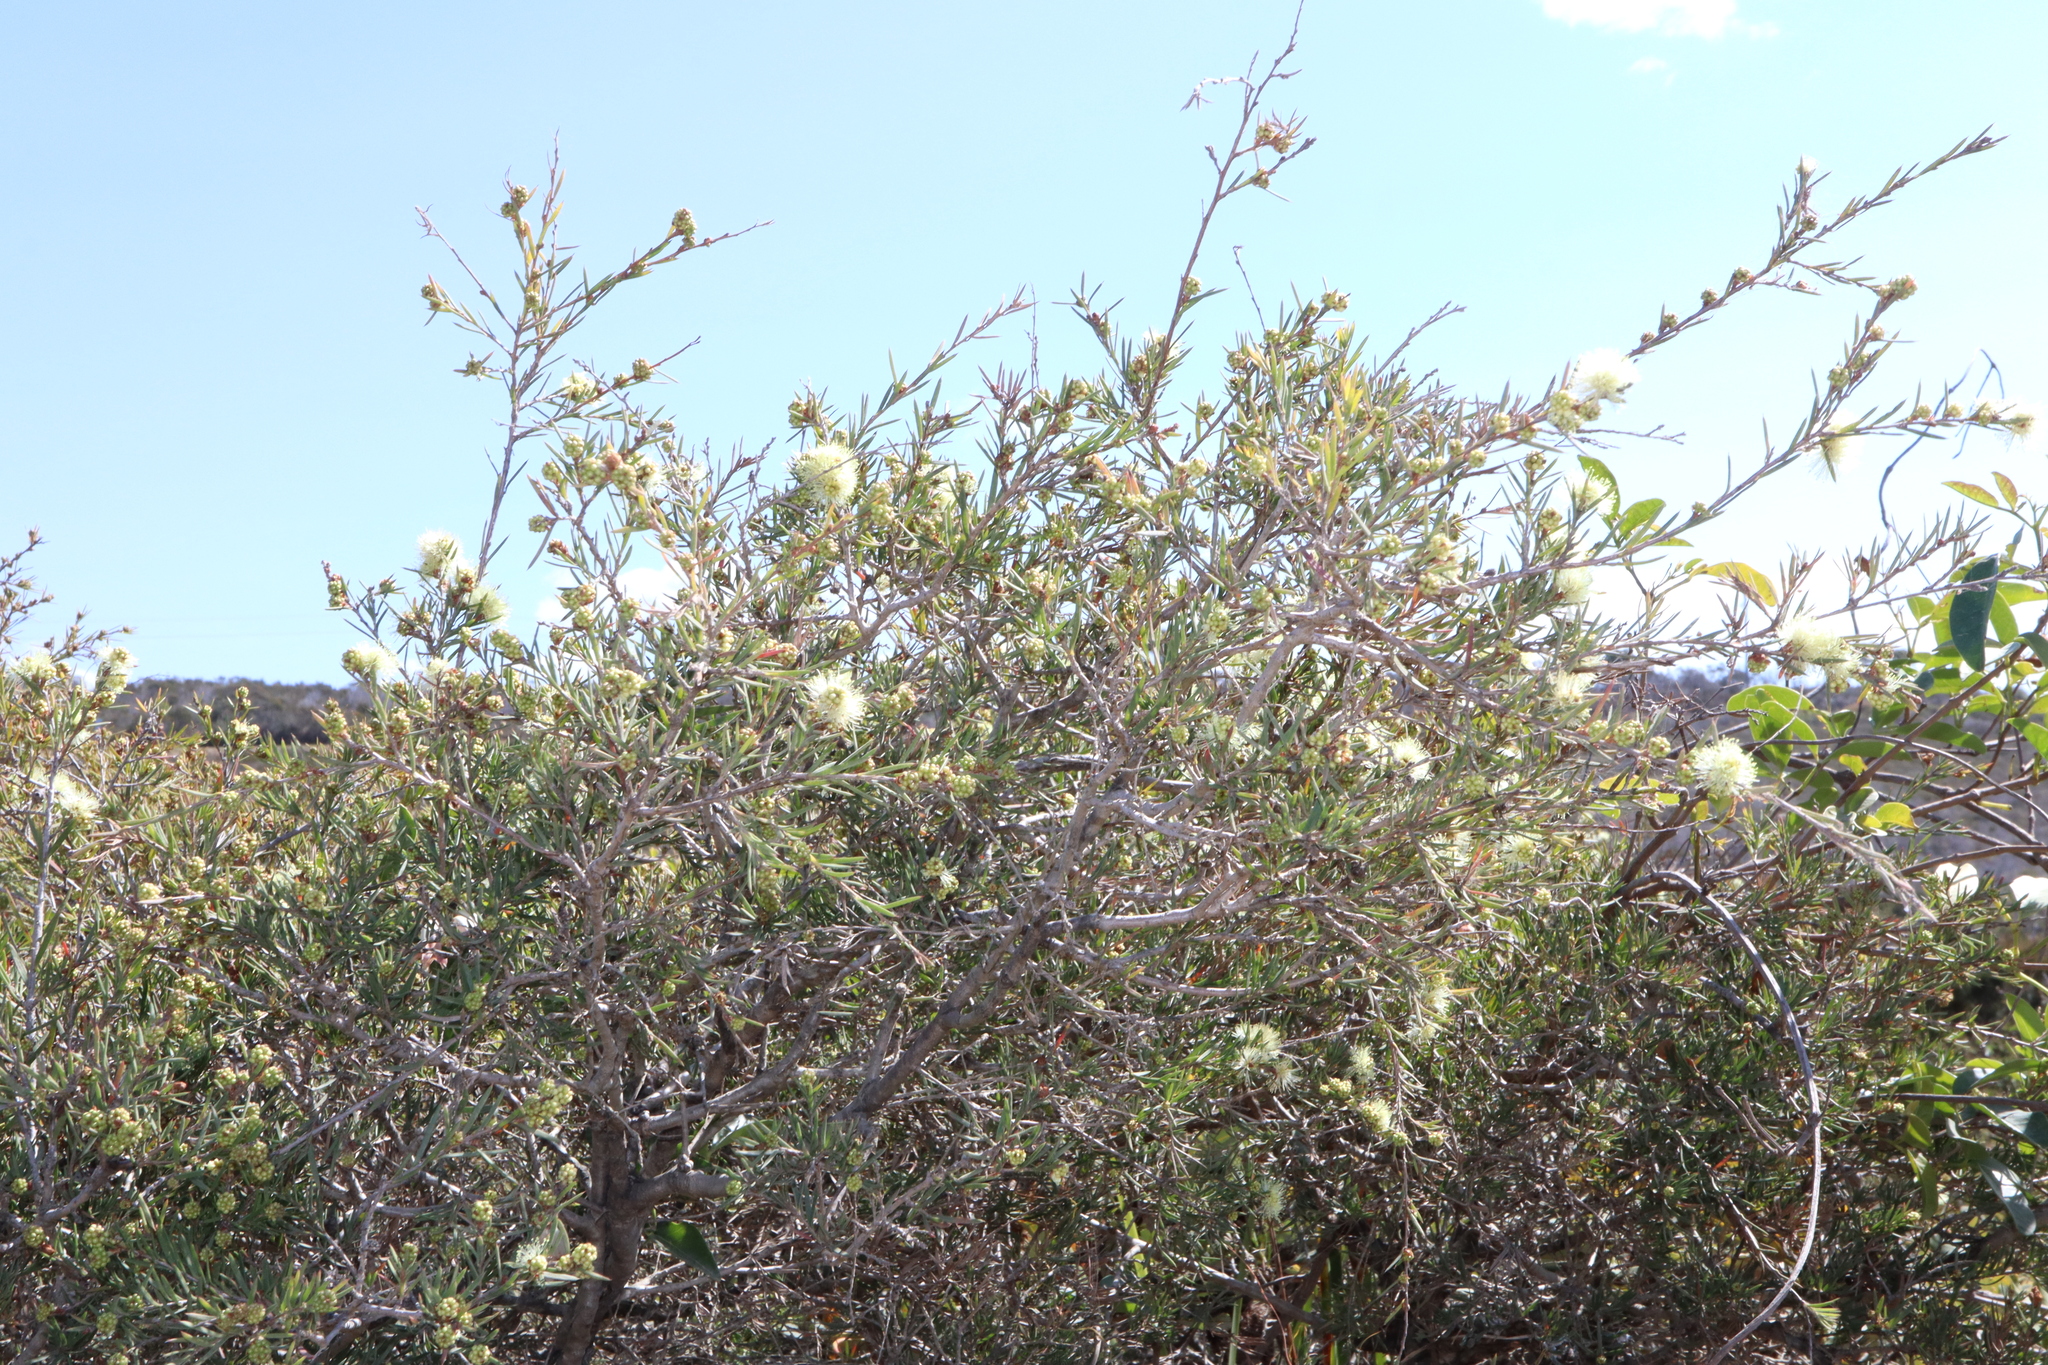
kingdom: Plantae
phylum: Tracheophyta
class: Magnoliopsida
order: Myrtales
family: Myrtaceae
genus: Melaleuca
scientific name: Melaleuca nodosa
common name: Prickly-leaf paperbark
